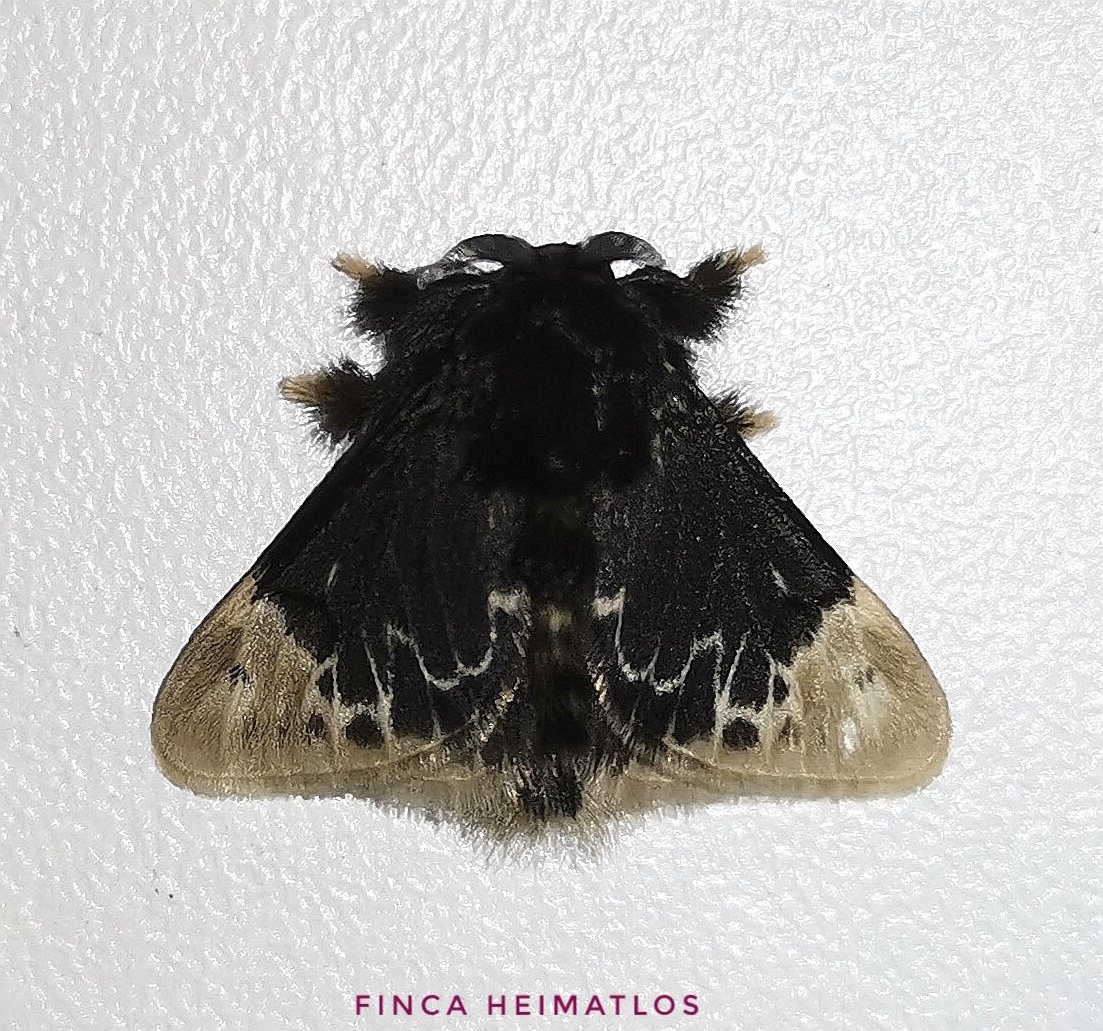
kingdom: Animalia
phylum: Arthropoda
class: Insecta
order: Lepidoptera
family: Megalopygidae
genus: Podalia
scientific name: Podalia amarga
